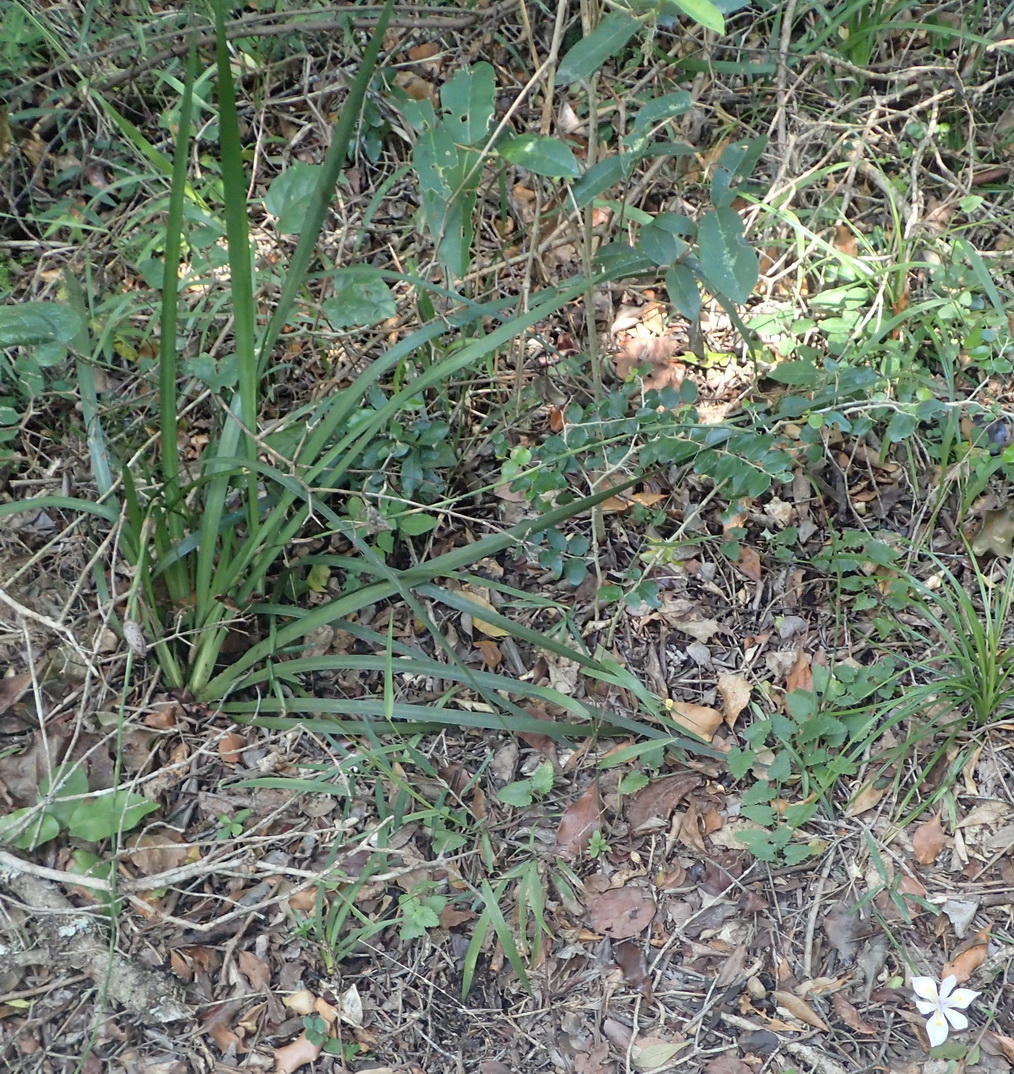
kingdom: Plantae
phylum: Tracheophyta
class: Liliopsida
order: Asparagales
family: Iridaceae
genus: Dietes
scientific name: Dietes iridioides
